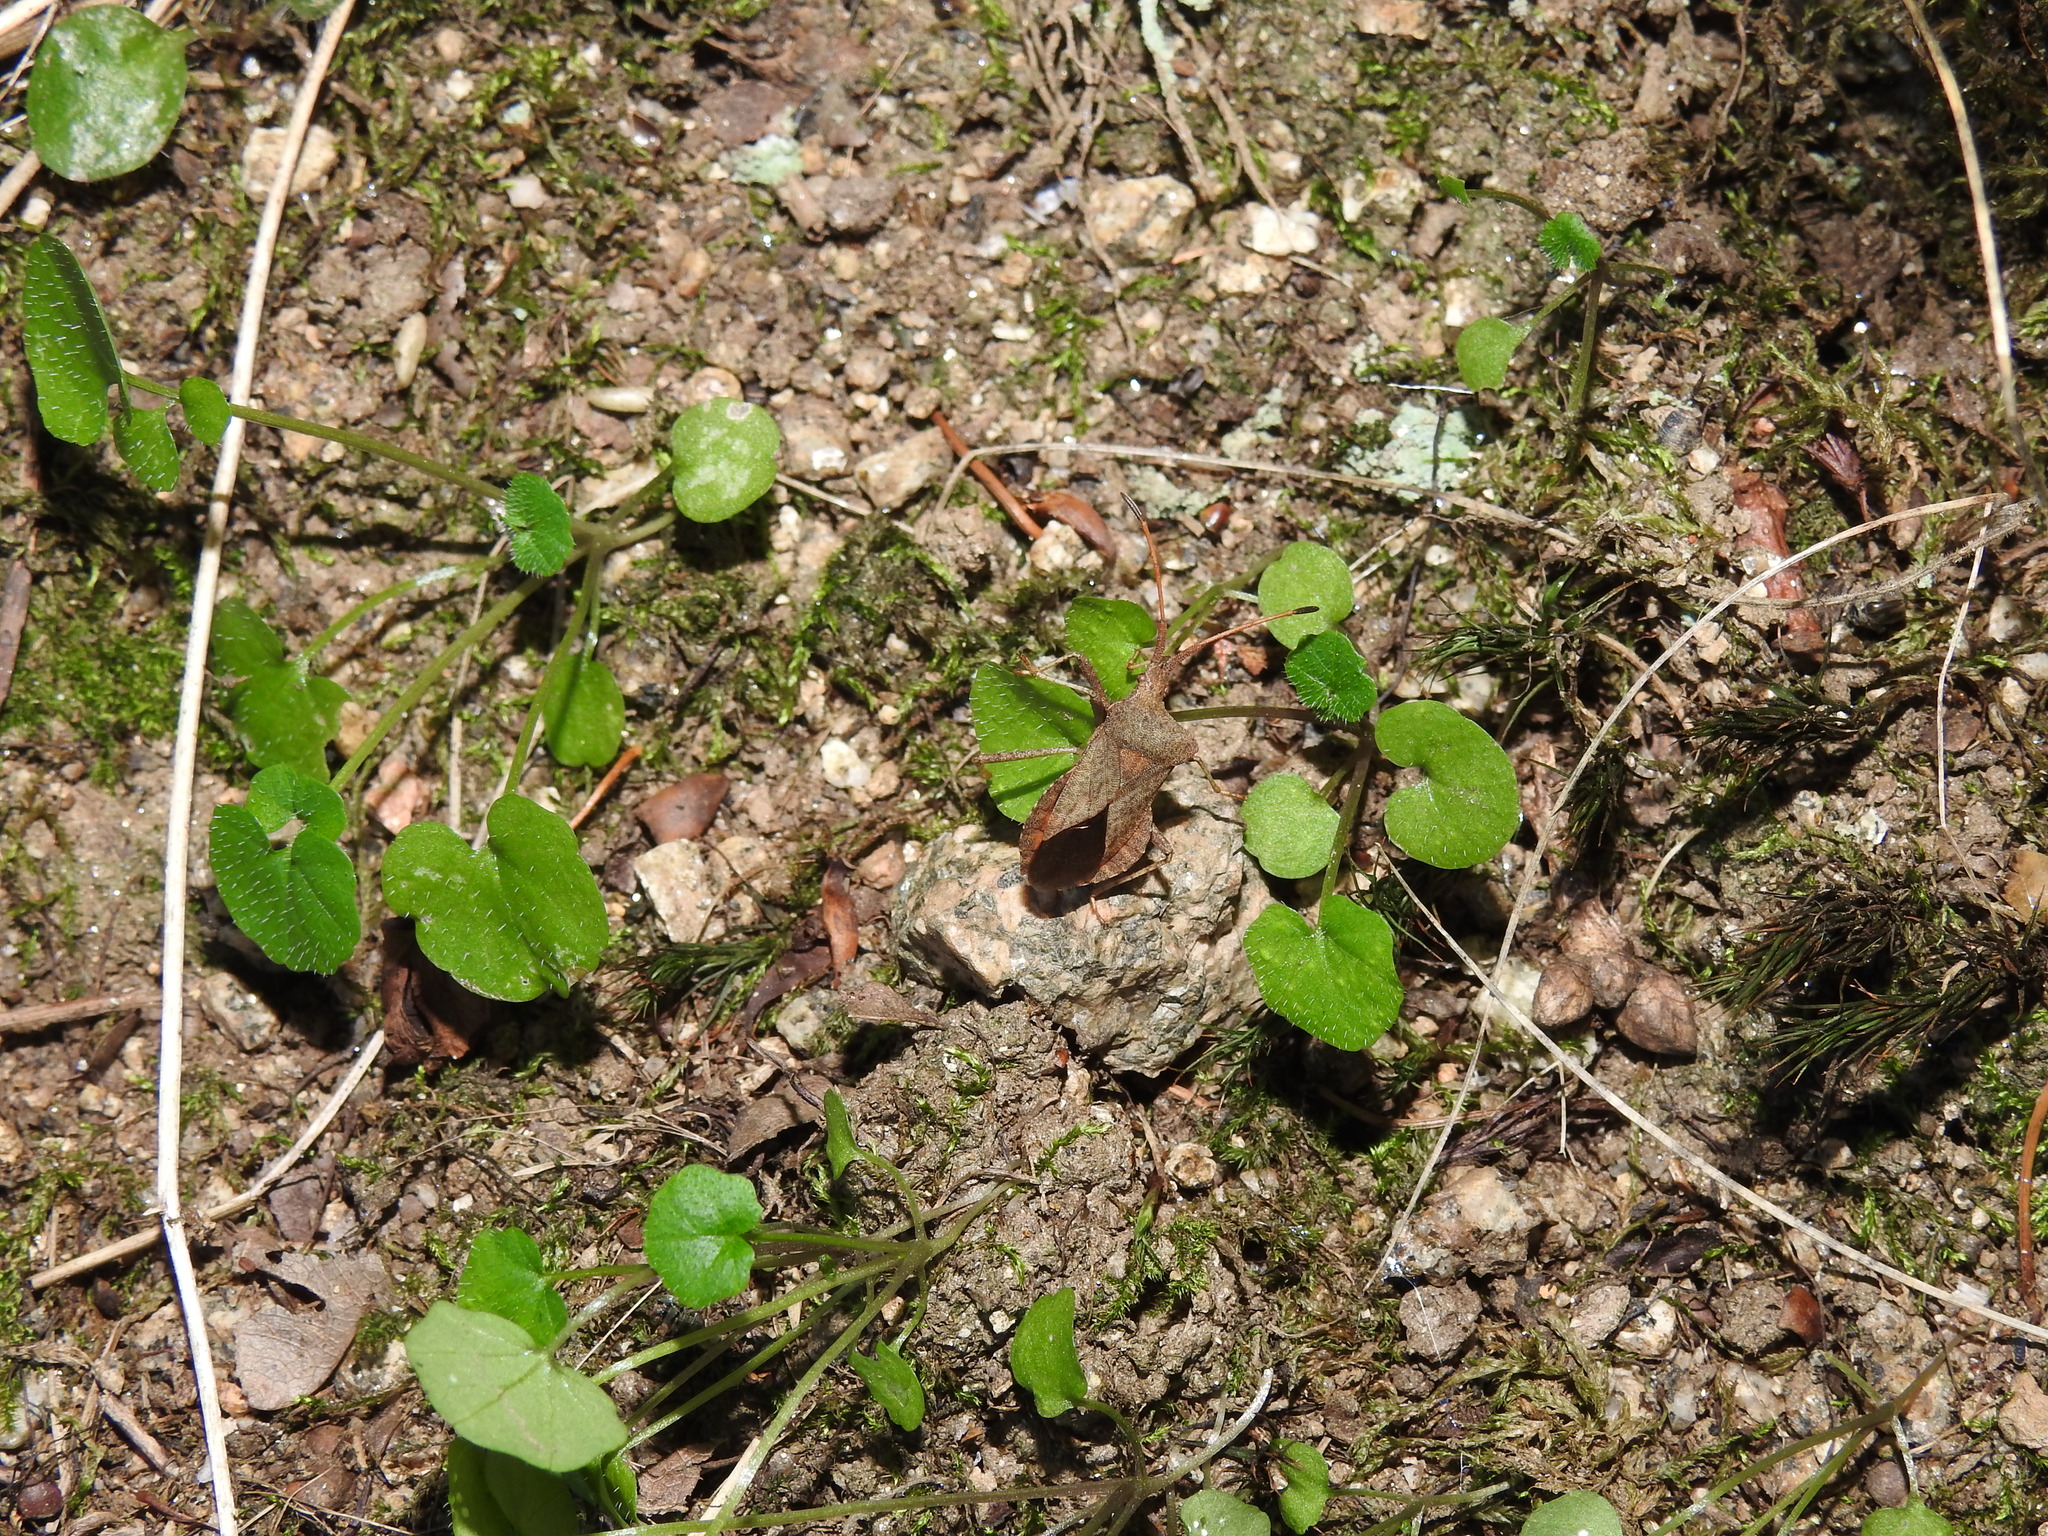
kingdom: Animalia
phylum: Arthropoda
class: Insecta
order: Hemiptera
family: Coreidae
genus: Coreus
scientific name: Coreus marginatus
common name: Dock bug
